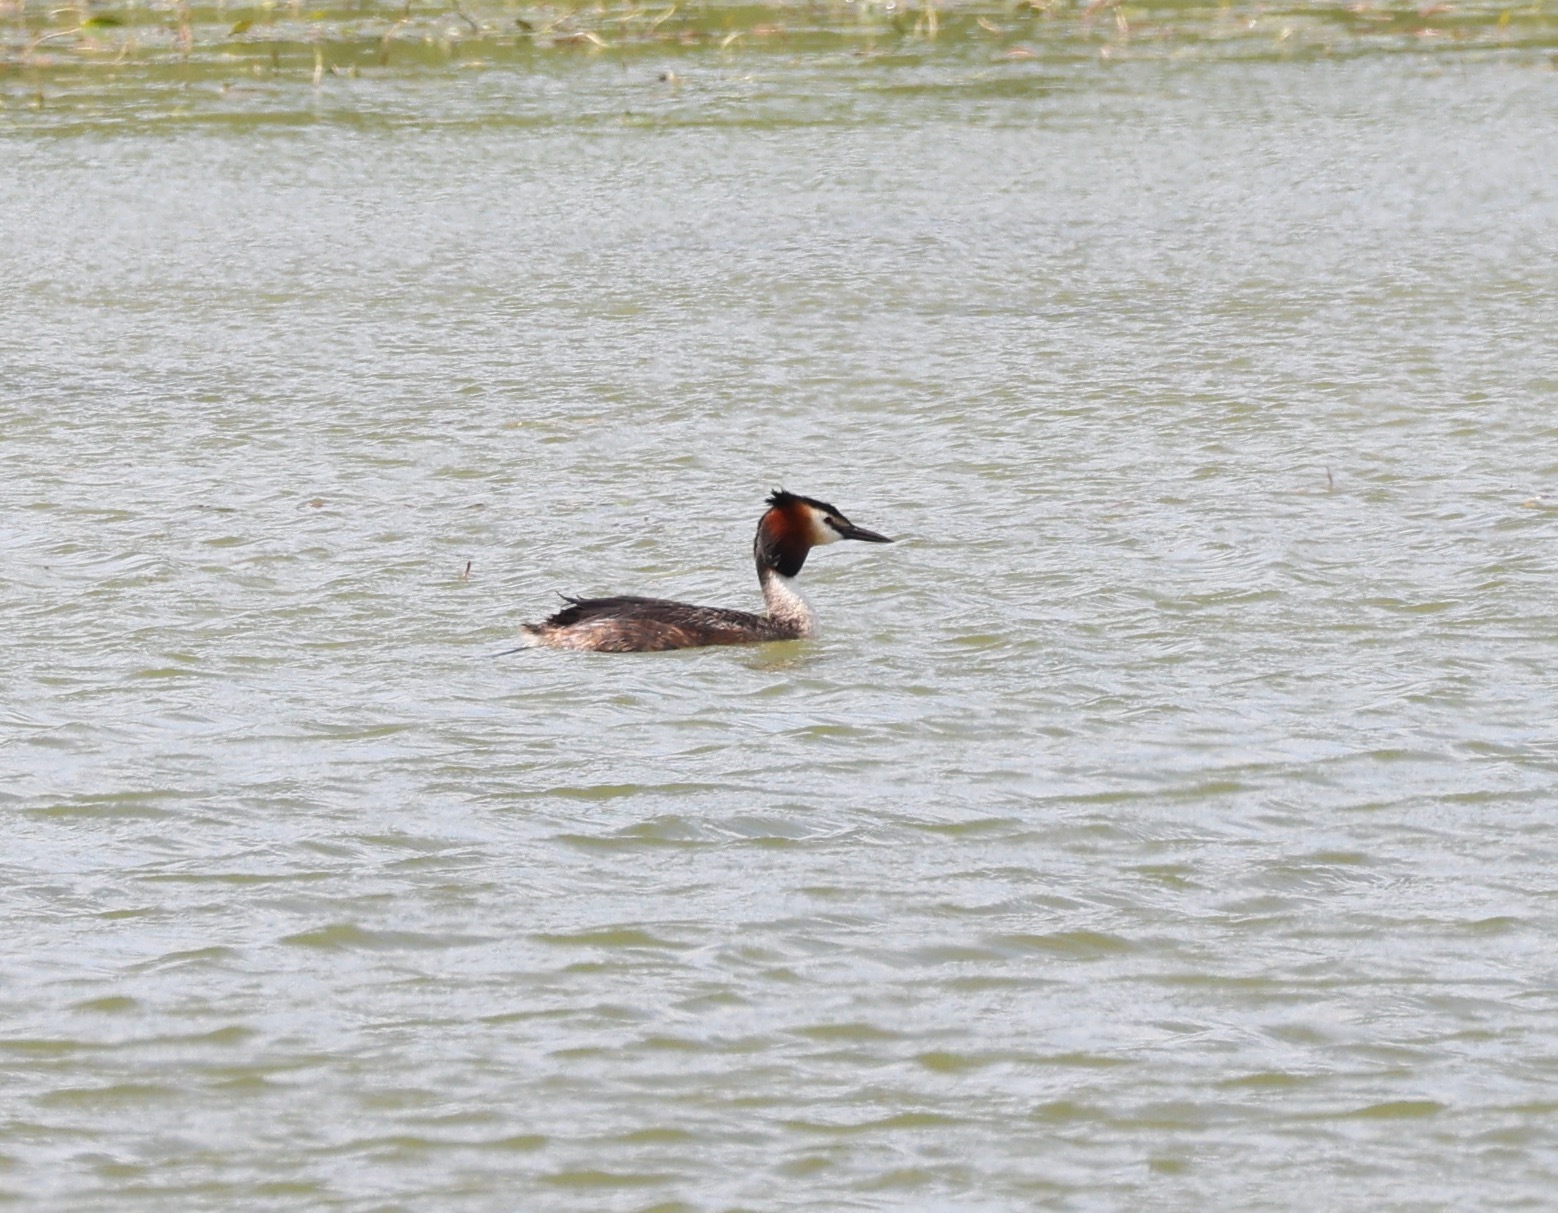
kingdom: Animalia
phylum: Chordata
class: Aves
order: Podicipediformes
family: Podicipedidae
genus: Podiceps
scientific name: Podiceps cristatus
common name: Great crested grebe
